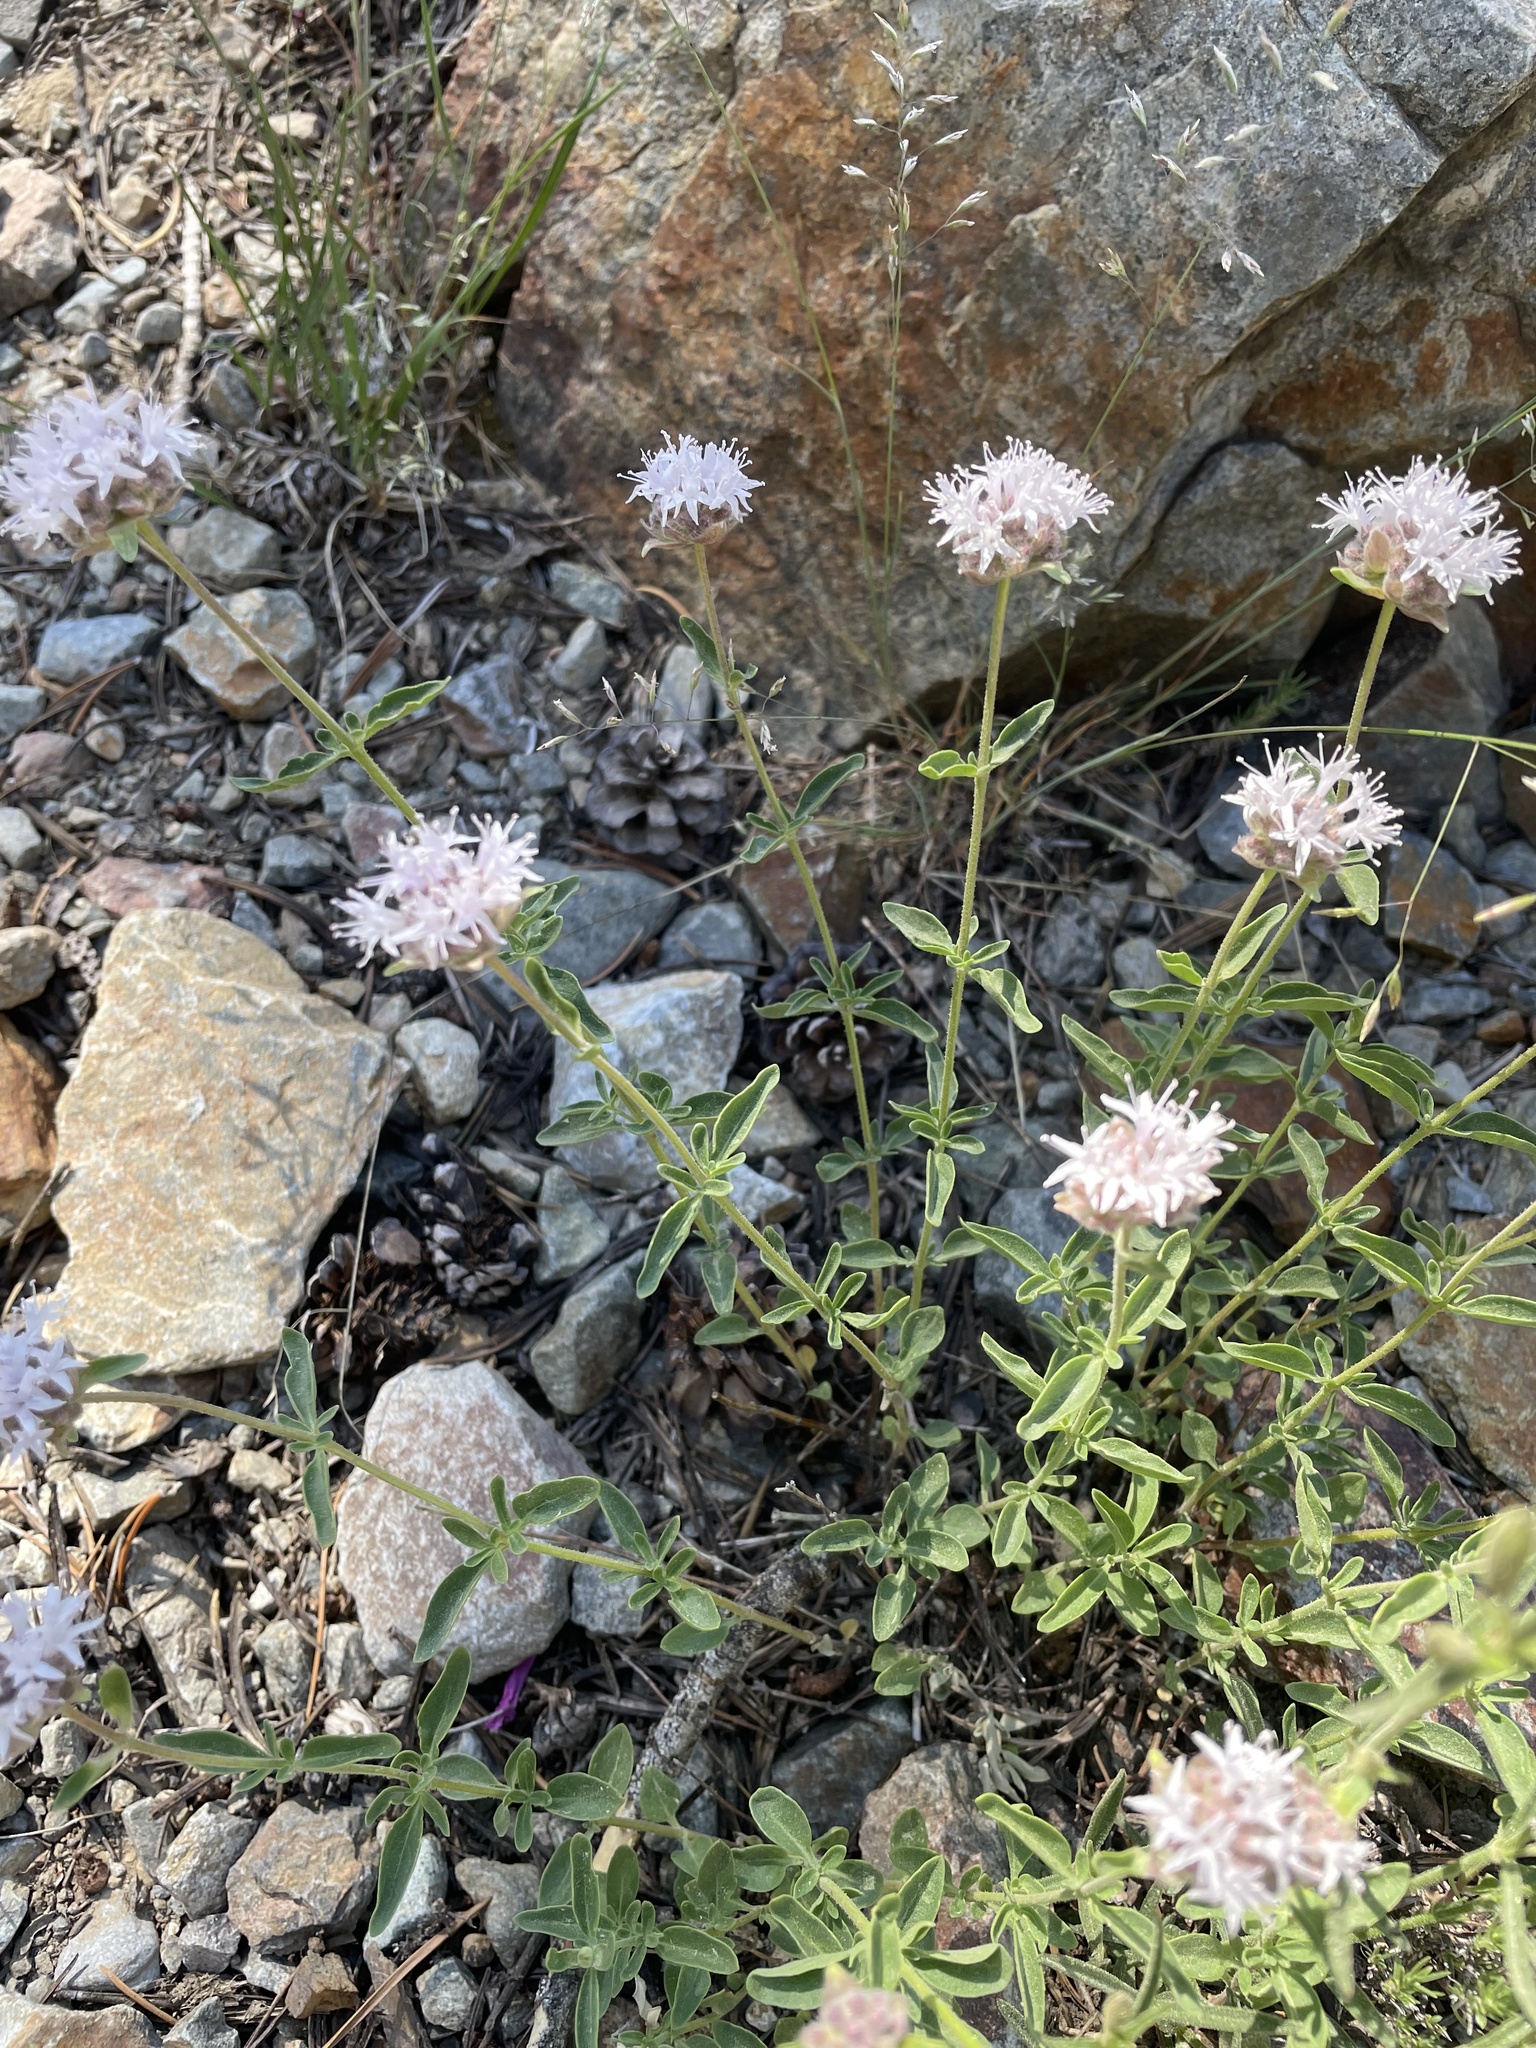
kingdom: Plantae
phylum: Tracheophyta
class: Magnoliopsida
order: Lamiales
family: Lamiaceae
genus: Monardella
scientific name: Monardella odoratissima
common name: Pacific monardella
